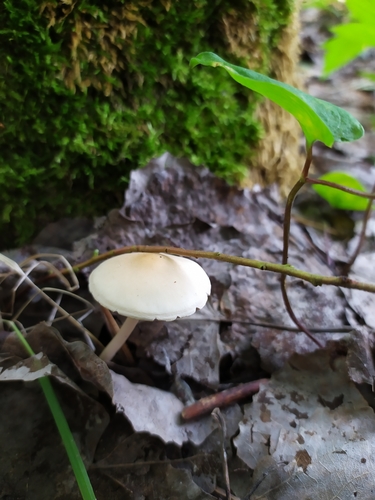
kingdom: Fungi
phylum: Basidiomycota
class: Agaricomycetes
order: Agaricales
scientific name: Agaricales
